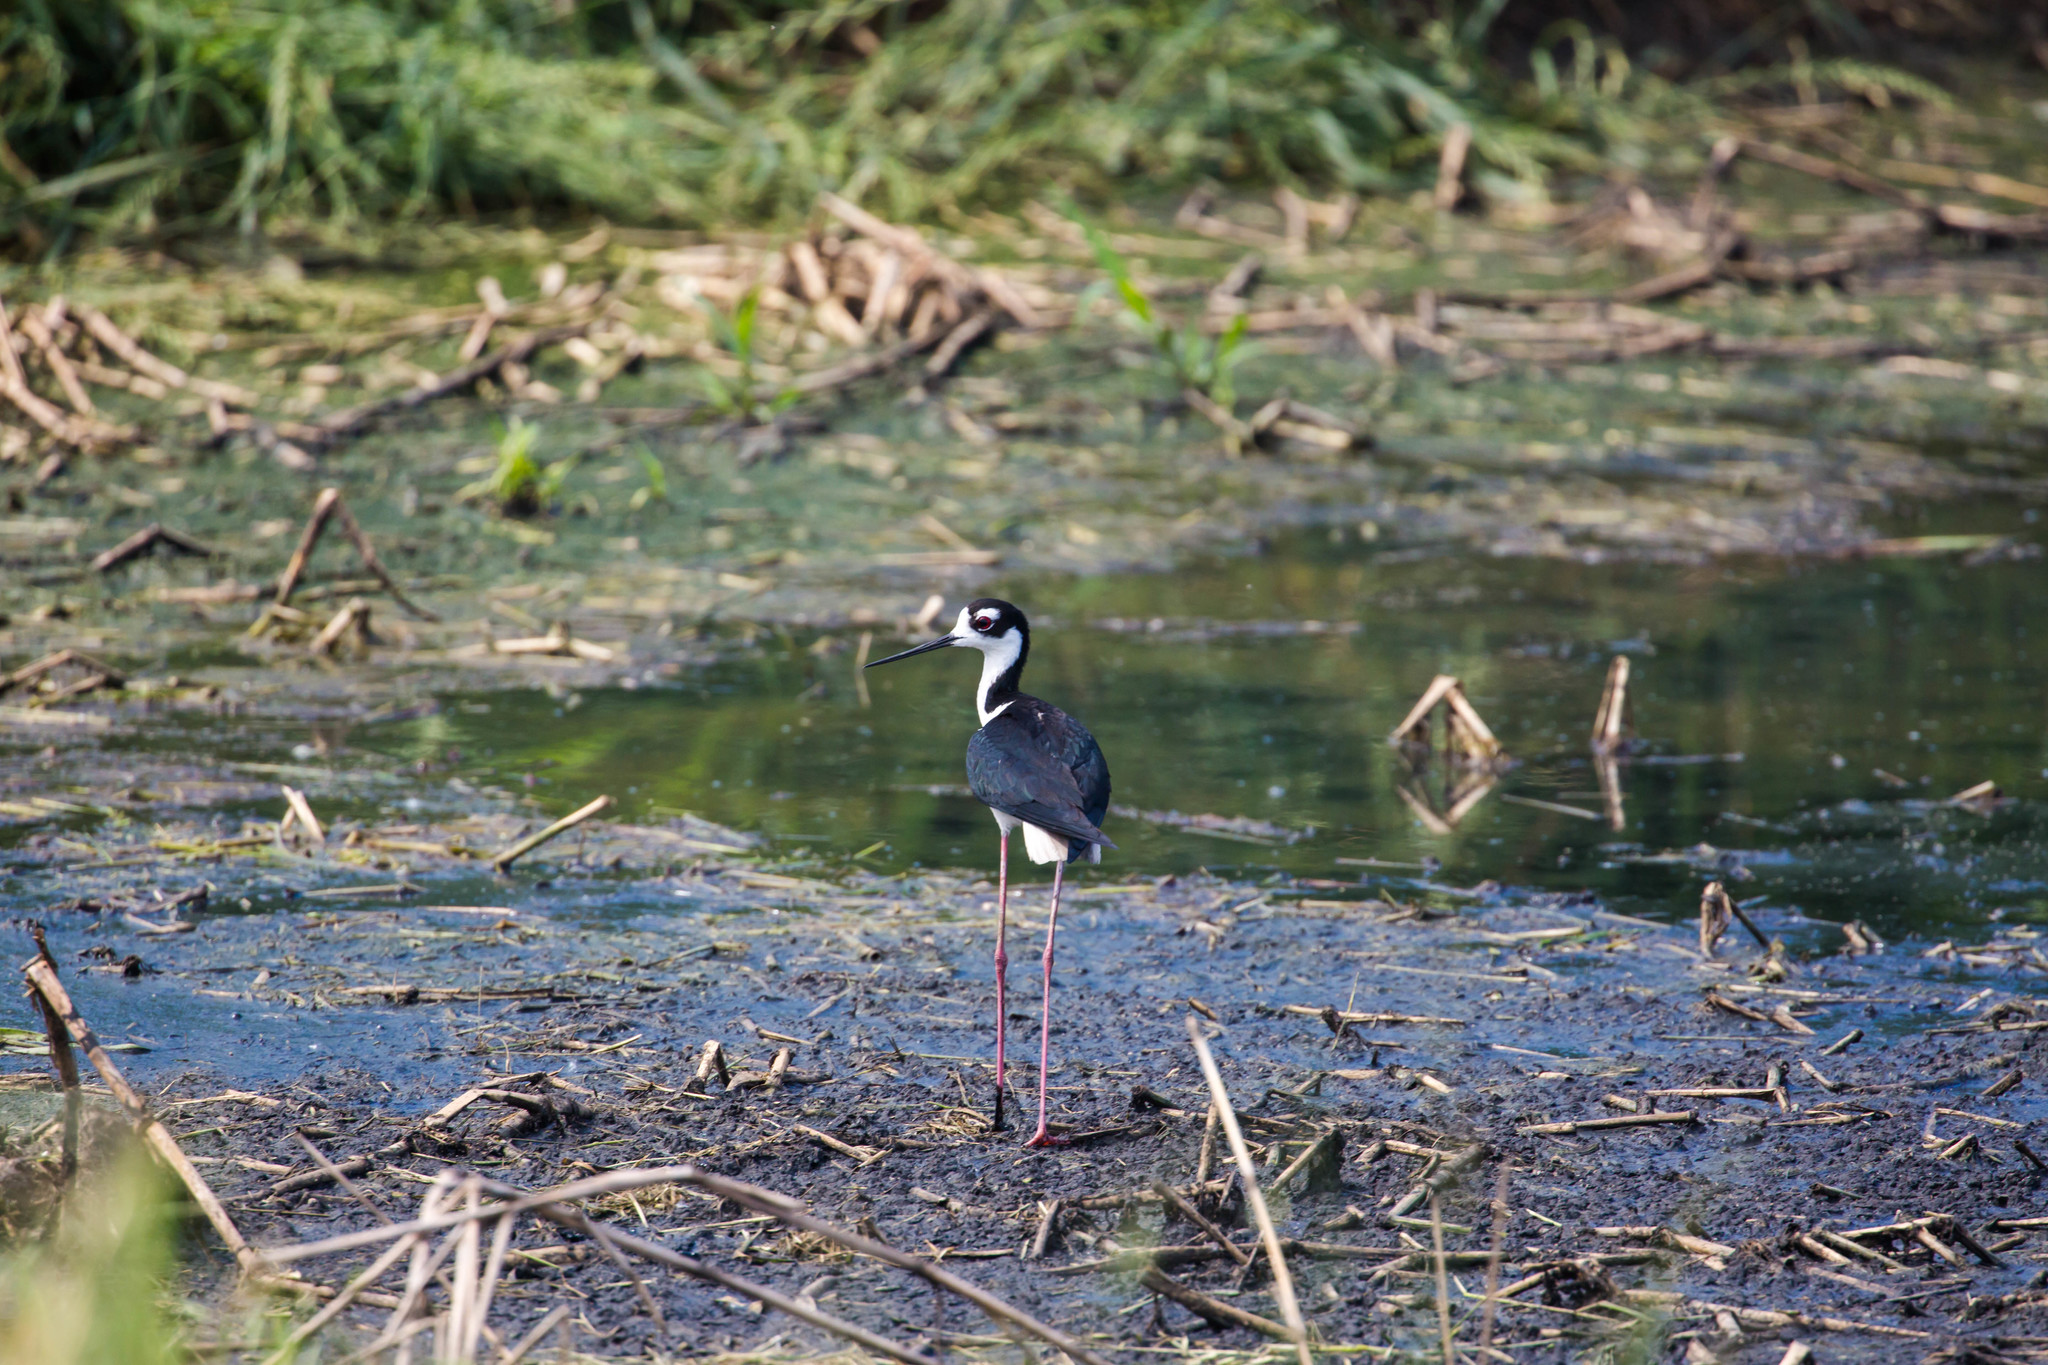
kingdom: Animalia
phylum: Chordata
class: Aves
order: Charadriiformes
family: Recurvirostridae
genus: Himantopus
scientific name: Himantopus mexicanus
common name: Black-necked stilt
